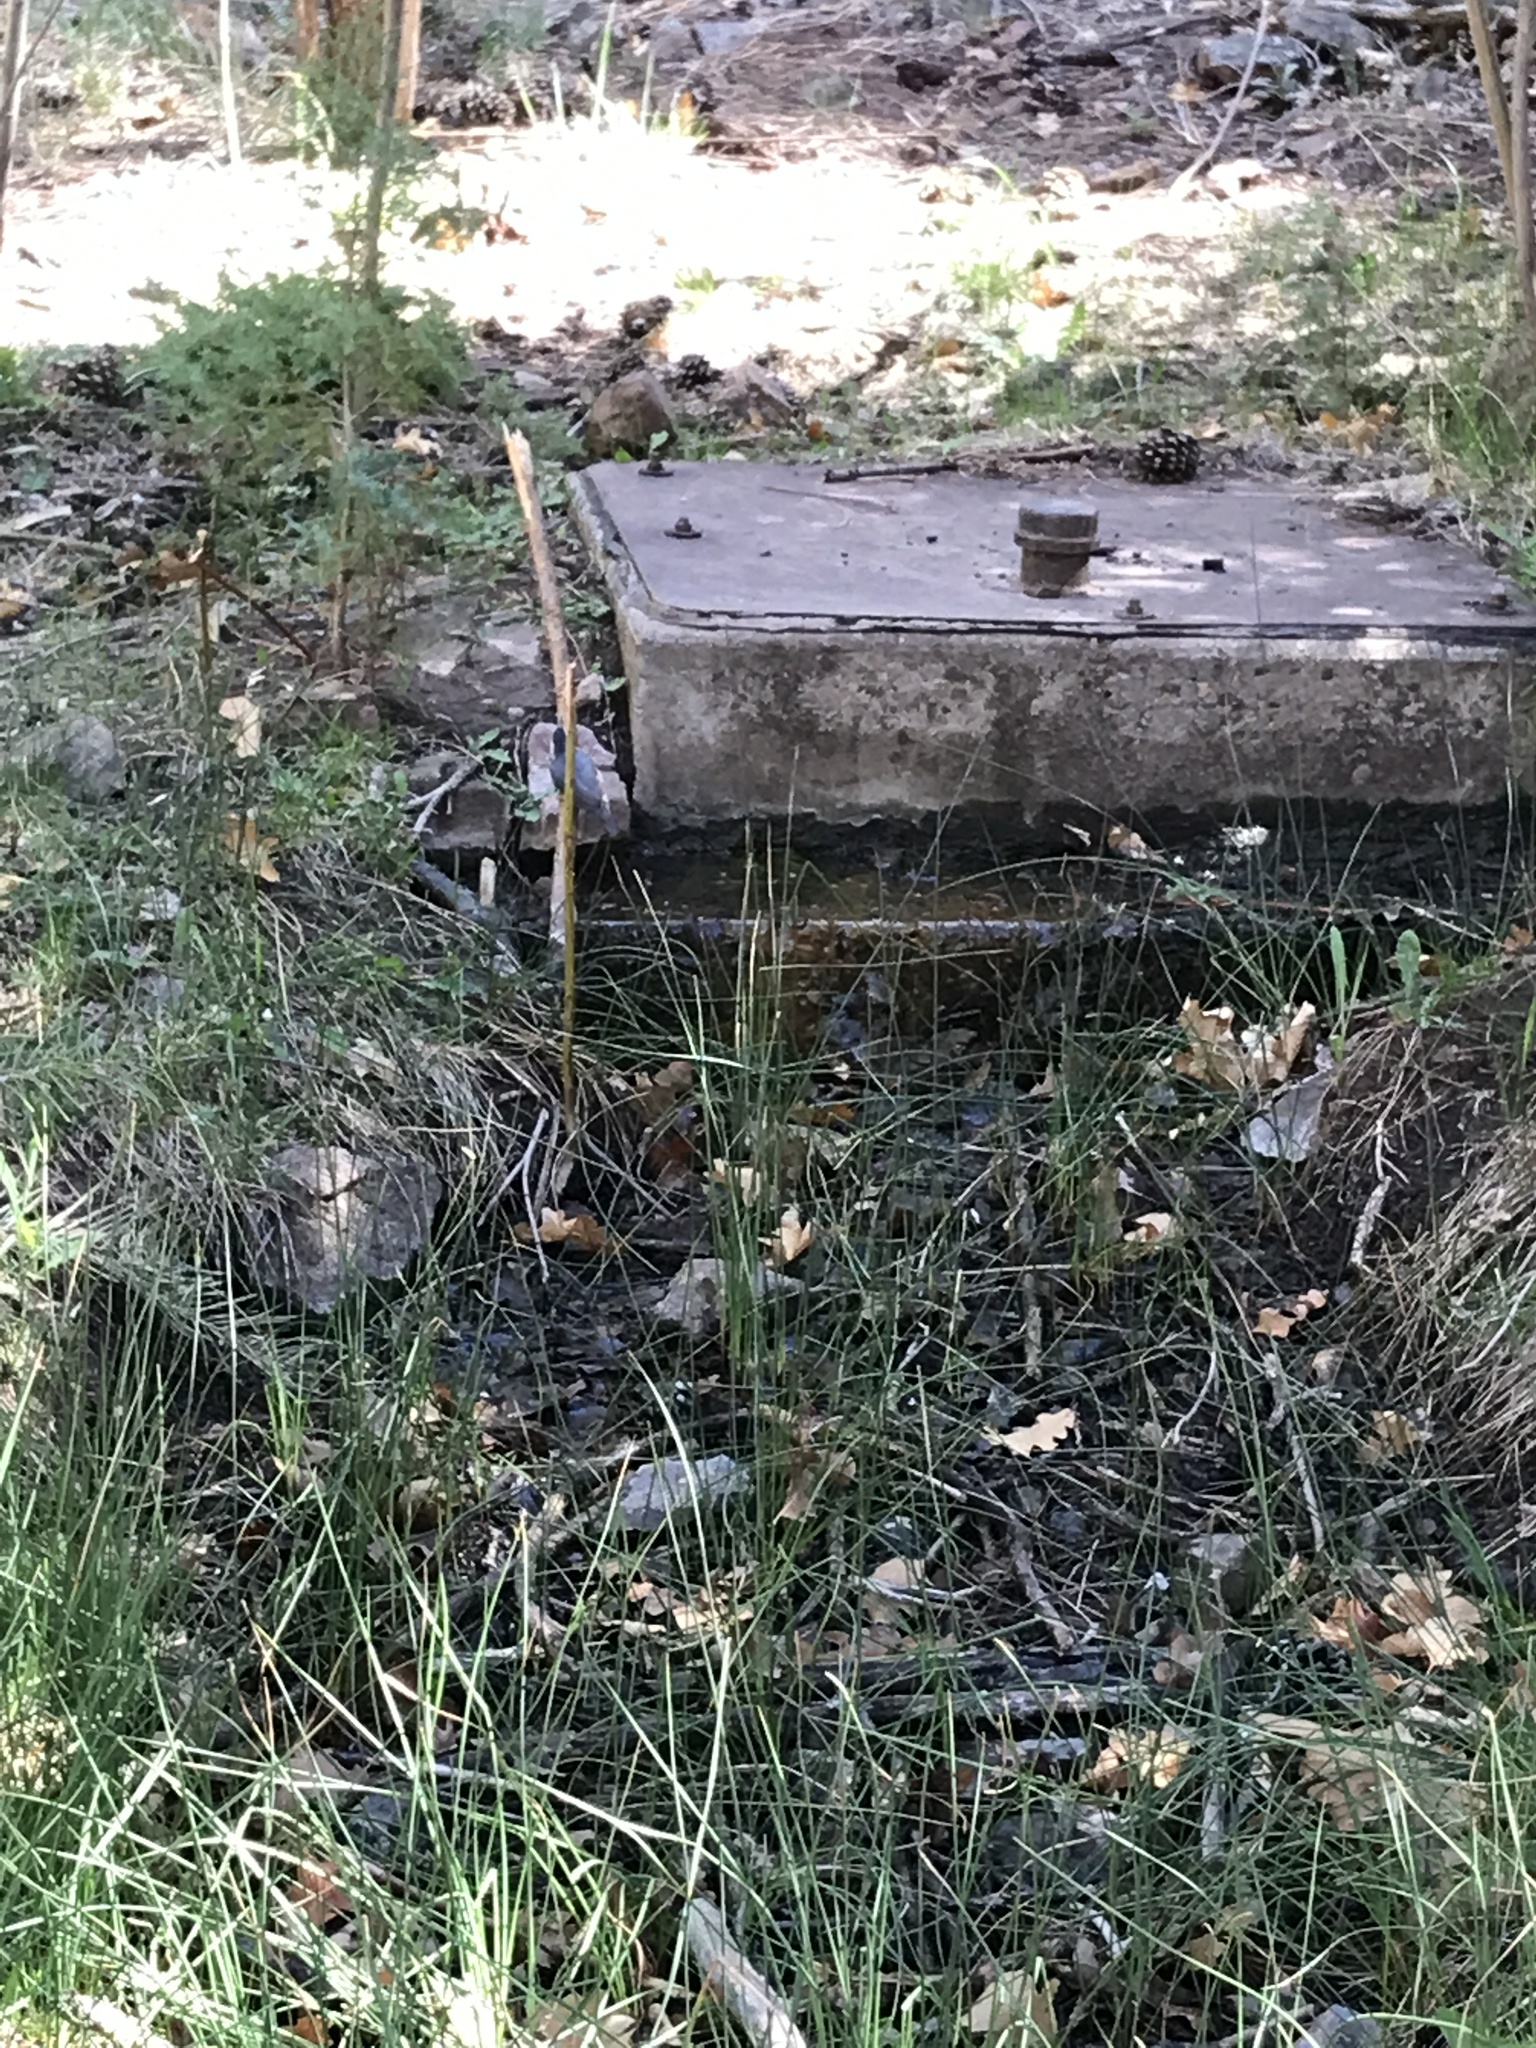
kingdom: Animalia
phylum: Chordata
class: Aves
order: Passeriformes
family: Sittidae
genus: Sitta
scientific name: Sitta canadensis
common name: Red-breasted nuthatch
